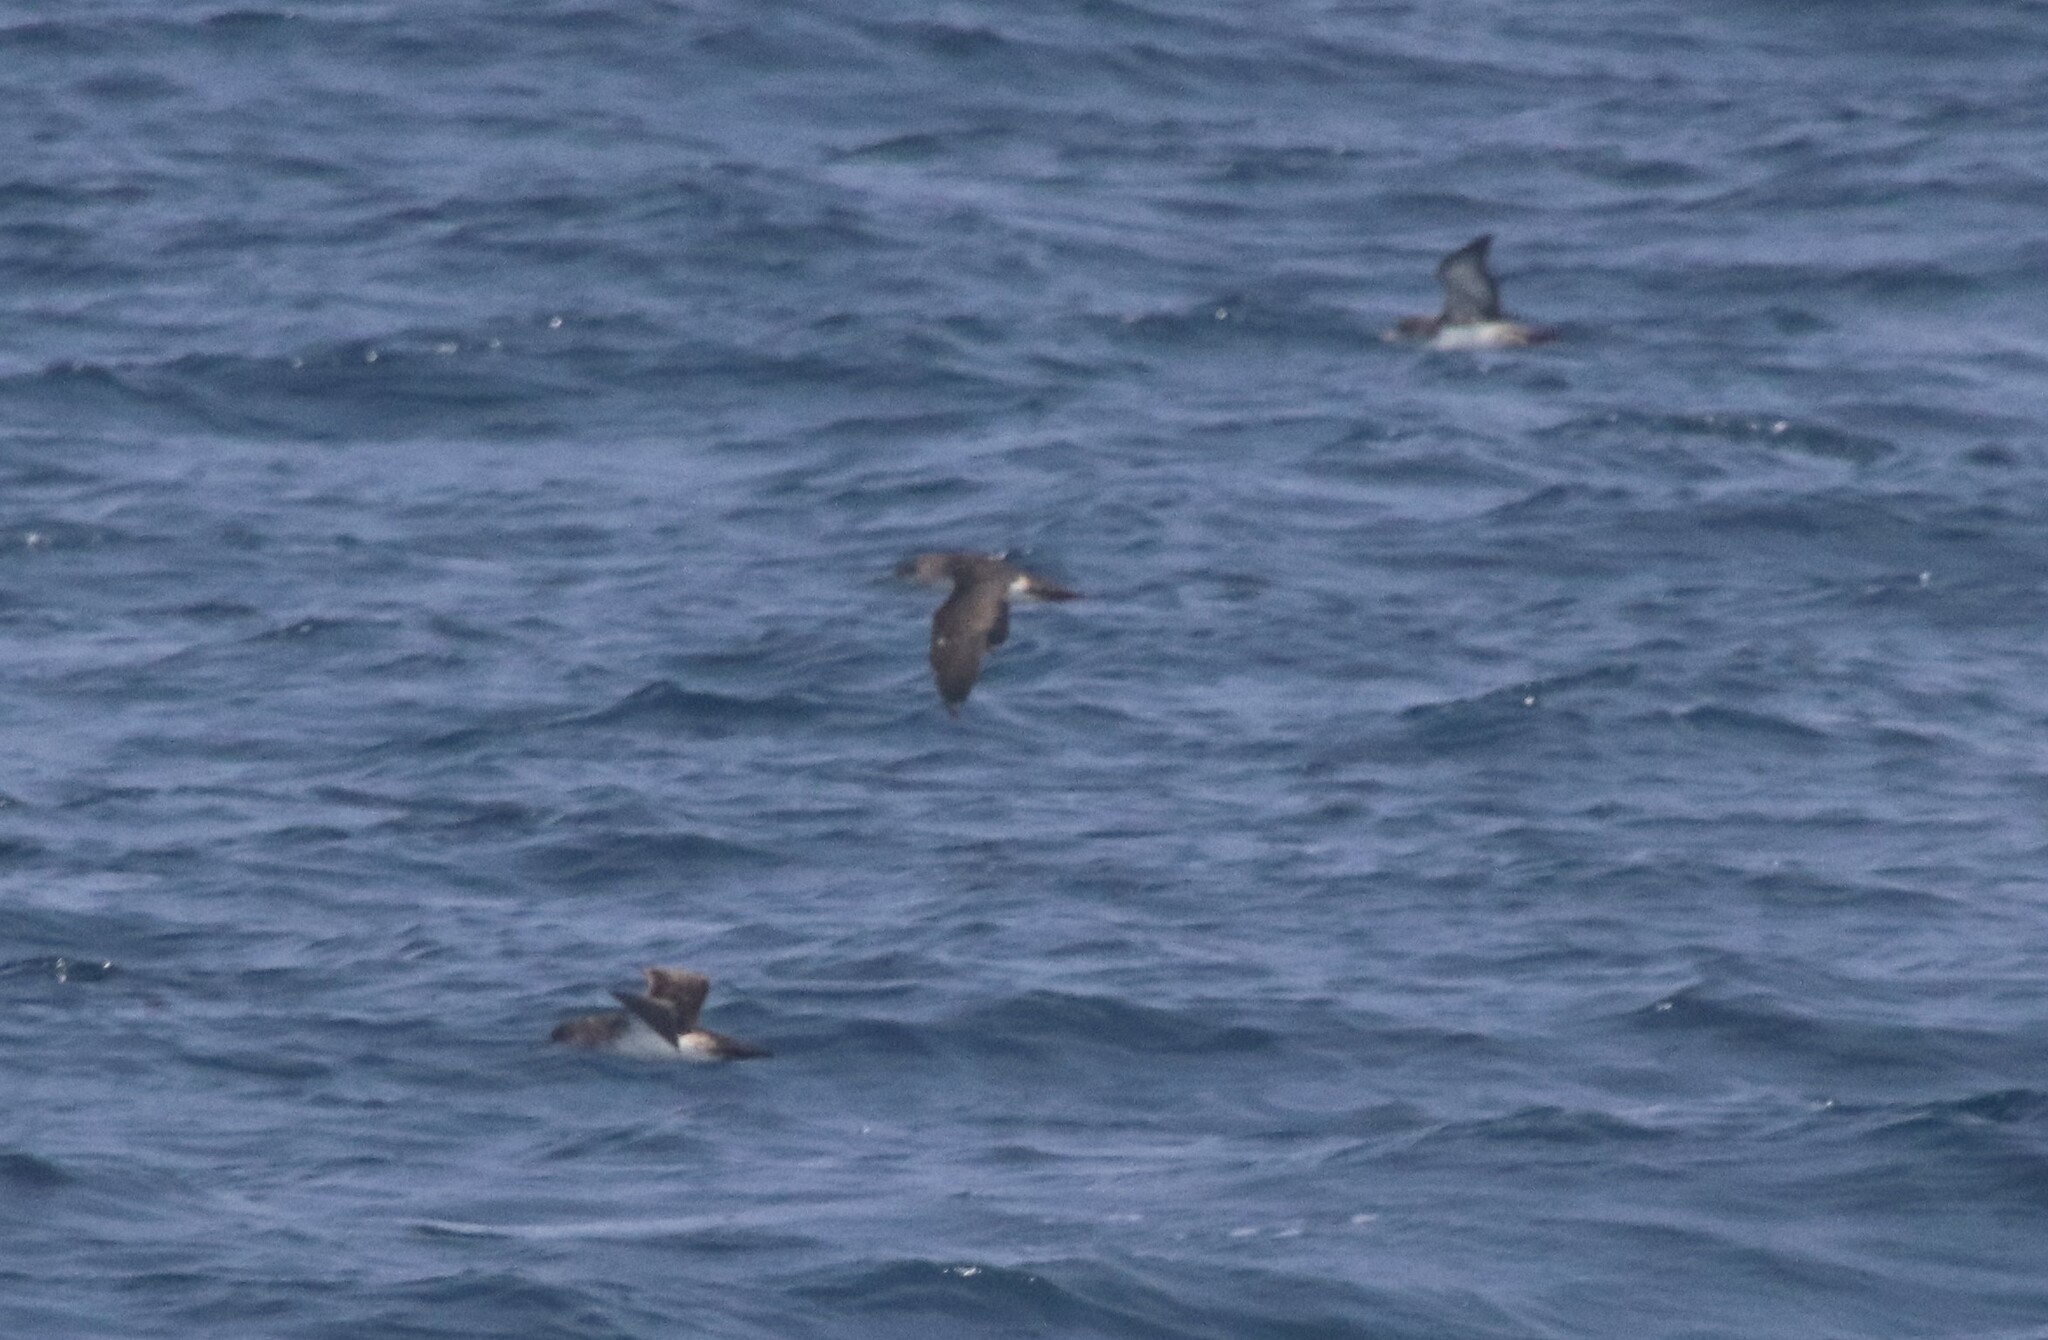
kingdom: Animalia
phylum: Chordata
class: Aves
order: Procellariiformes
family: Procellariidae
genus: Puffinus
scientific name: Puffinus opisthomelas
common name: Black-vented shearwater
